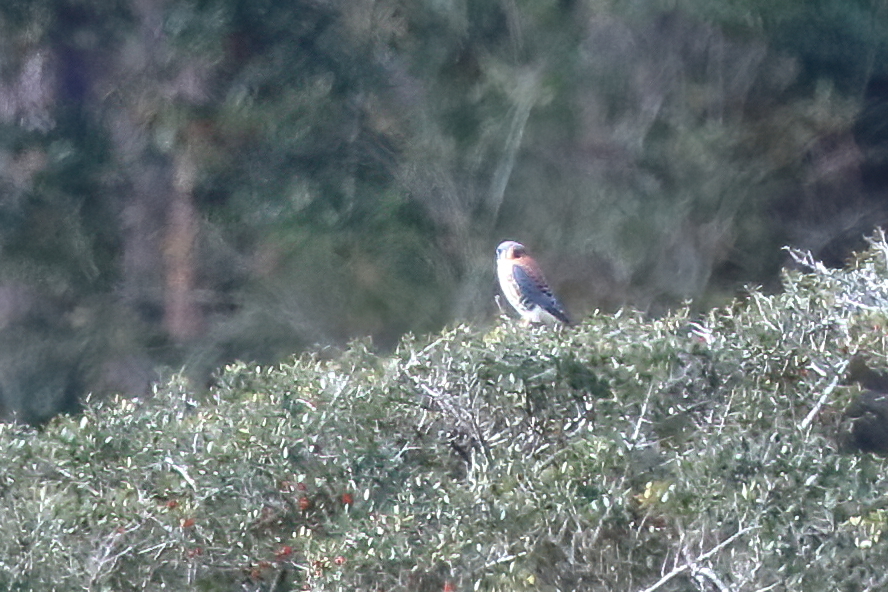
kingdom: Animalia
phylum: Chordata
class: Aves
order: Falconiformes
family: Falconidae
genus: Falco
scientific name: Falco sparverius
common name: American kestrel
